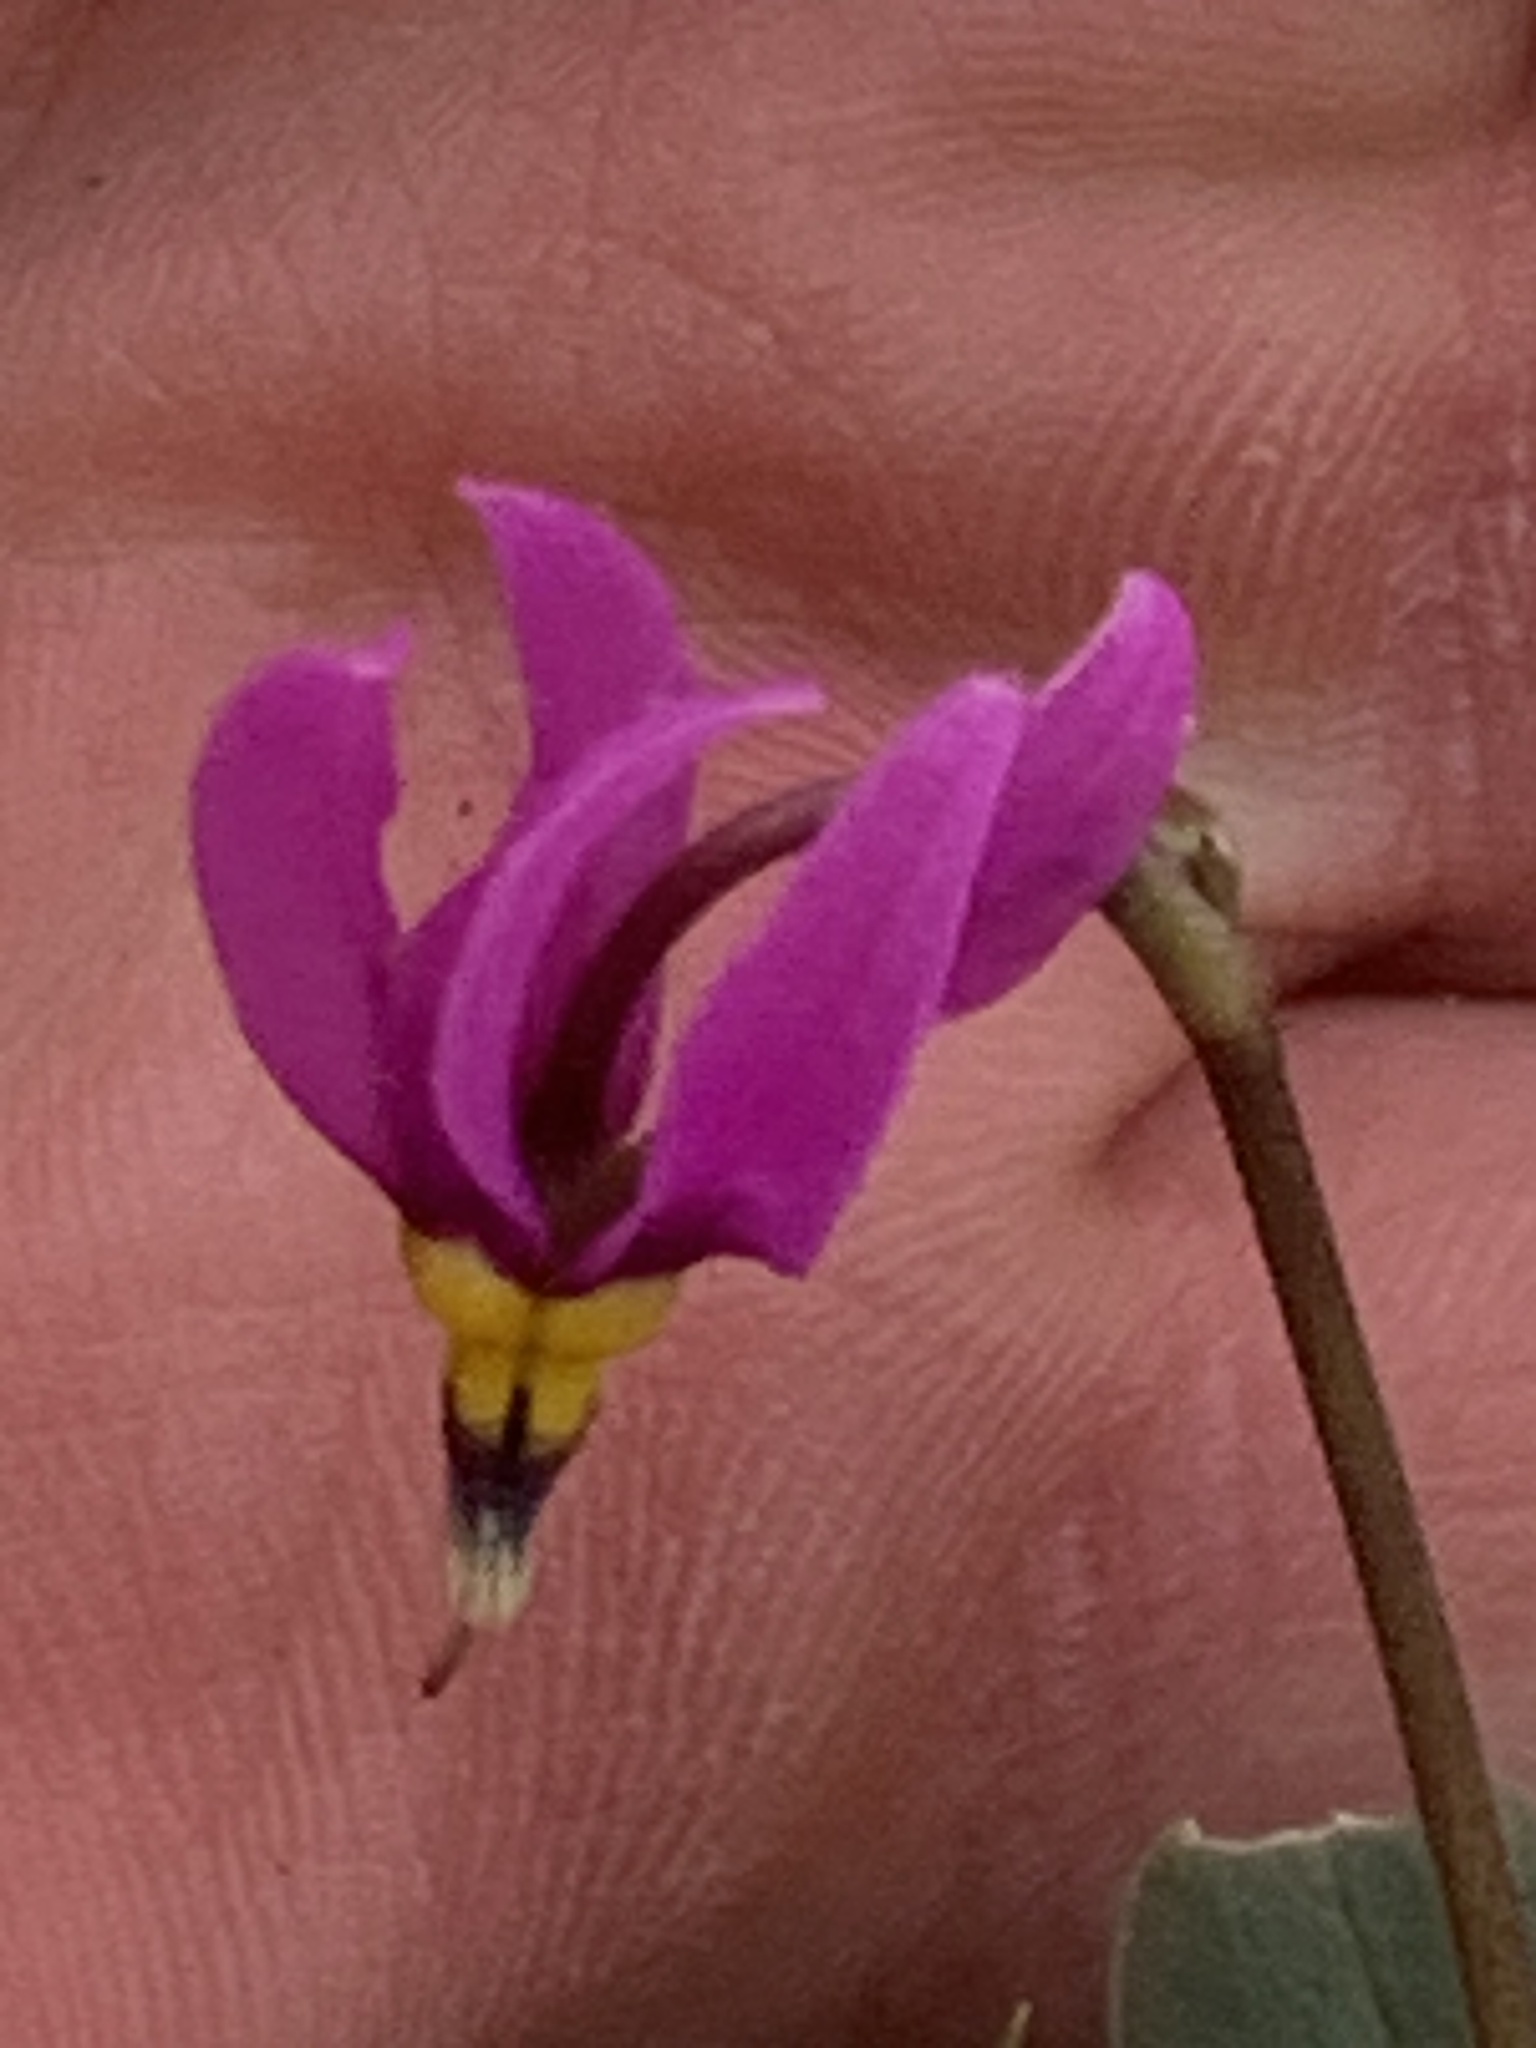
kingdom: Plantae
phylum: Tracheophyta
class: Magnoliopsida
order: Ericales
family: Primulaceae
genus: Dodecatheon
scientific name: Dodecatheon conjugens
